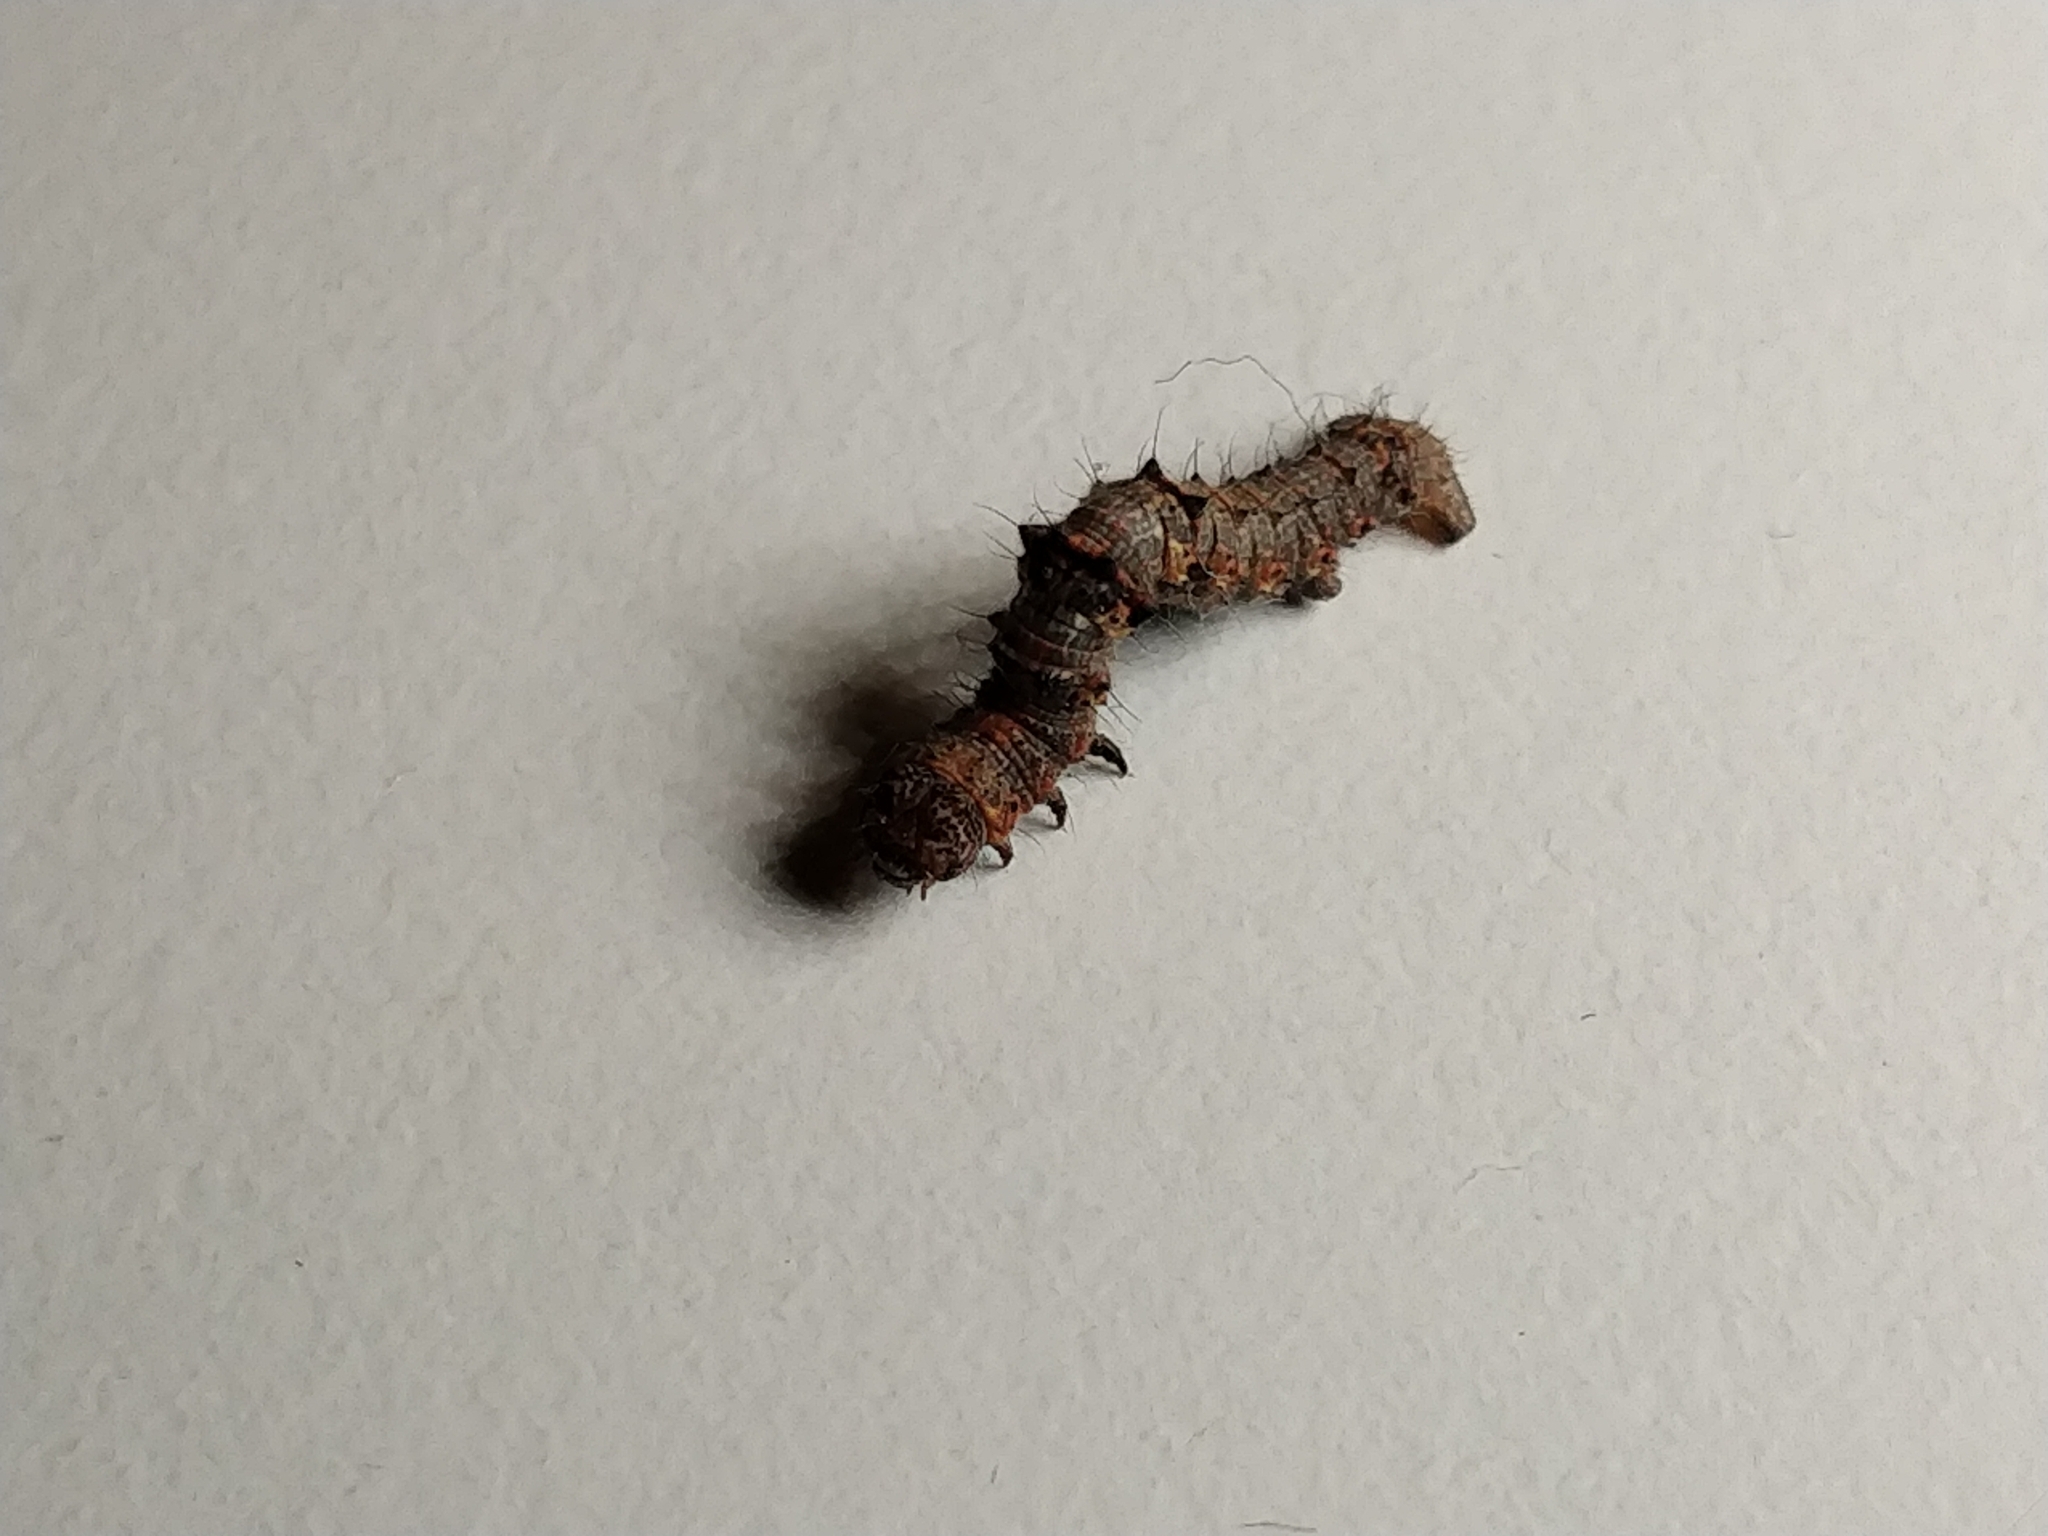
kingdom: Animalia
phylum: Arthropoda
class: Insecta
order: Lepidoptera
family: Geometridae
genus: Phigalia
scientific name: Phigalia pilosaria
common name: Pale brindled beauty
